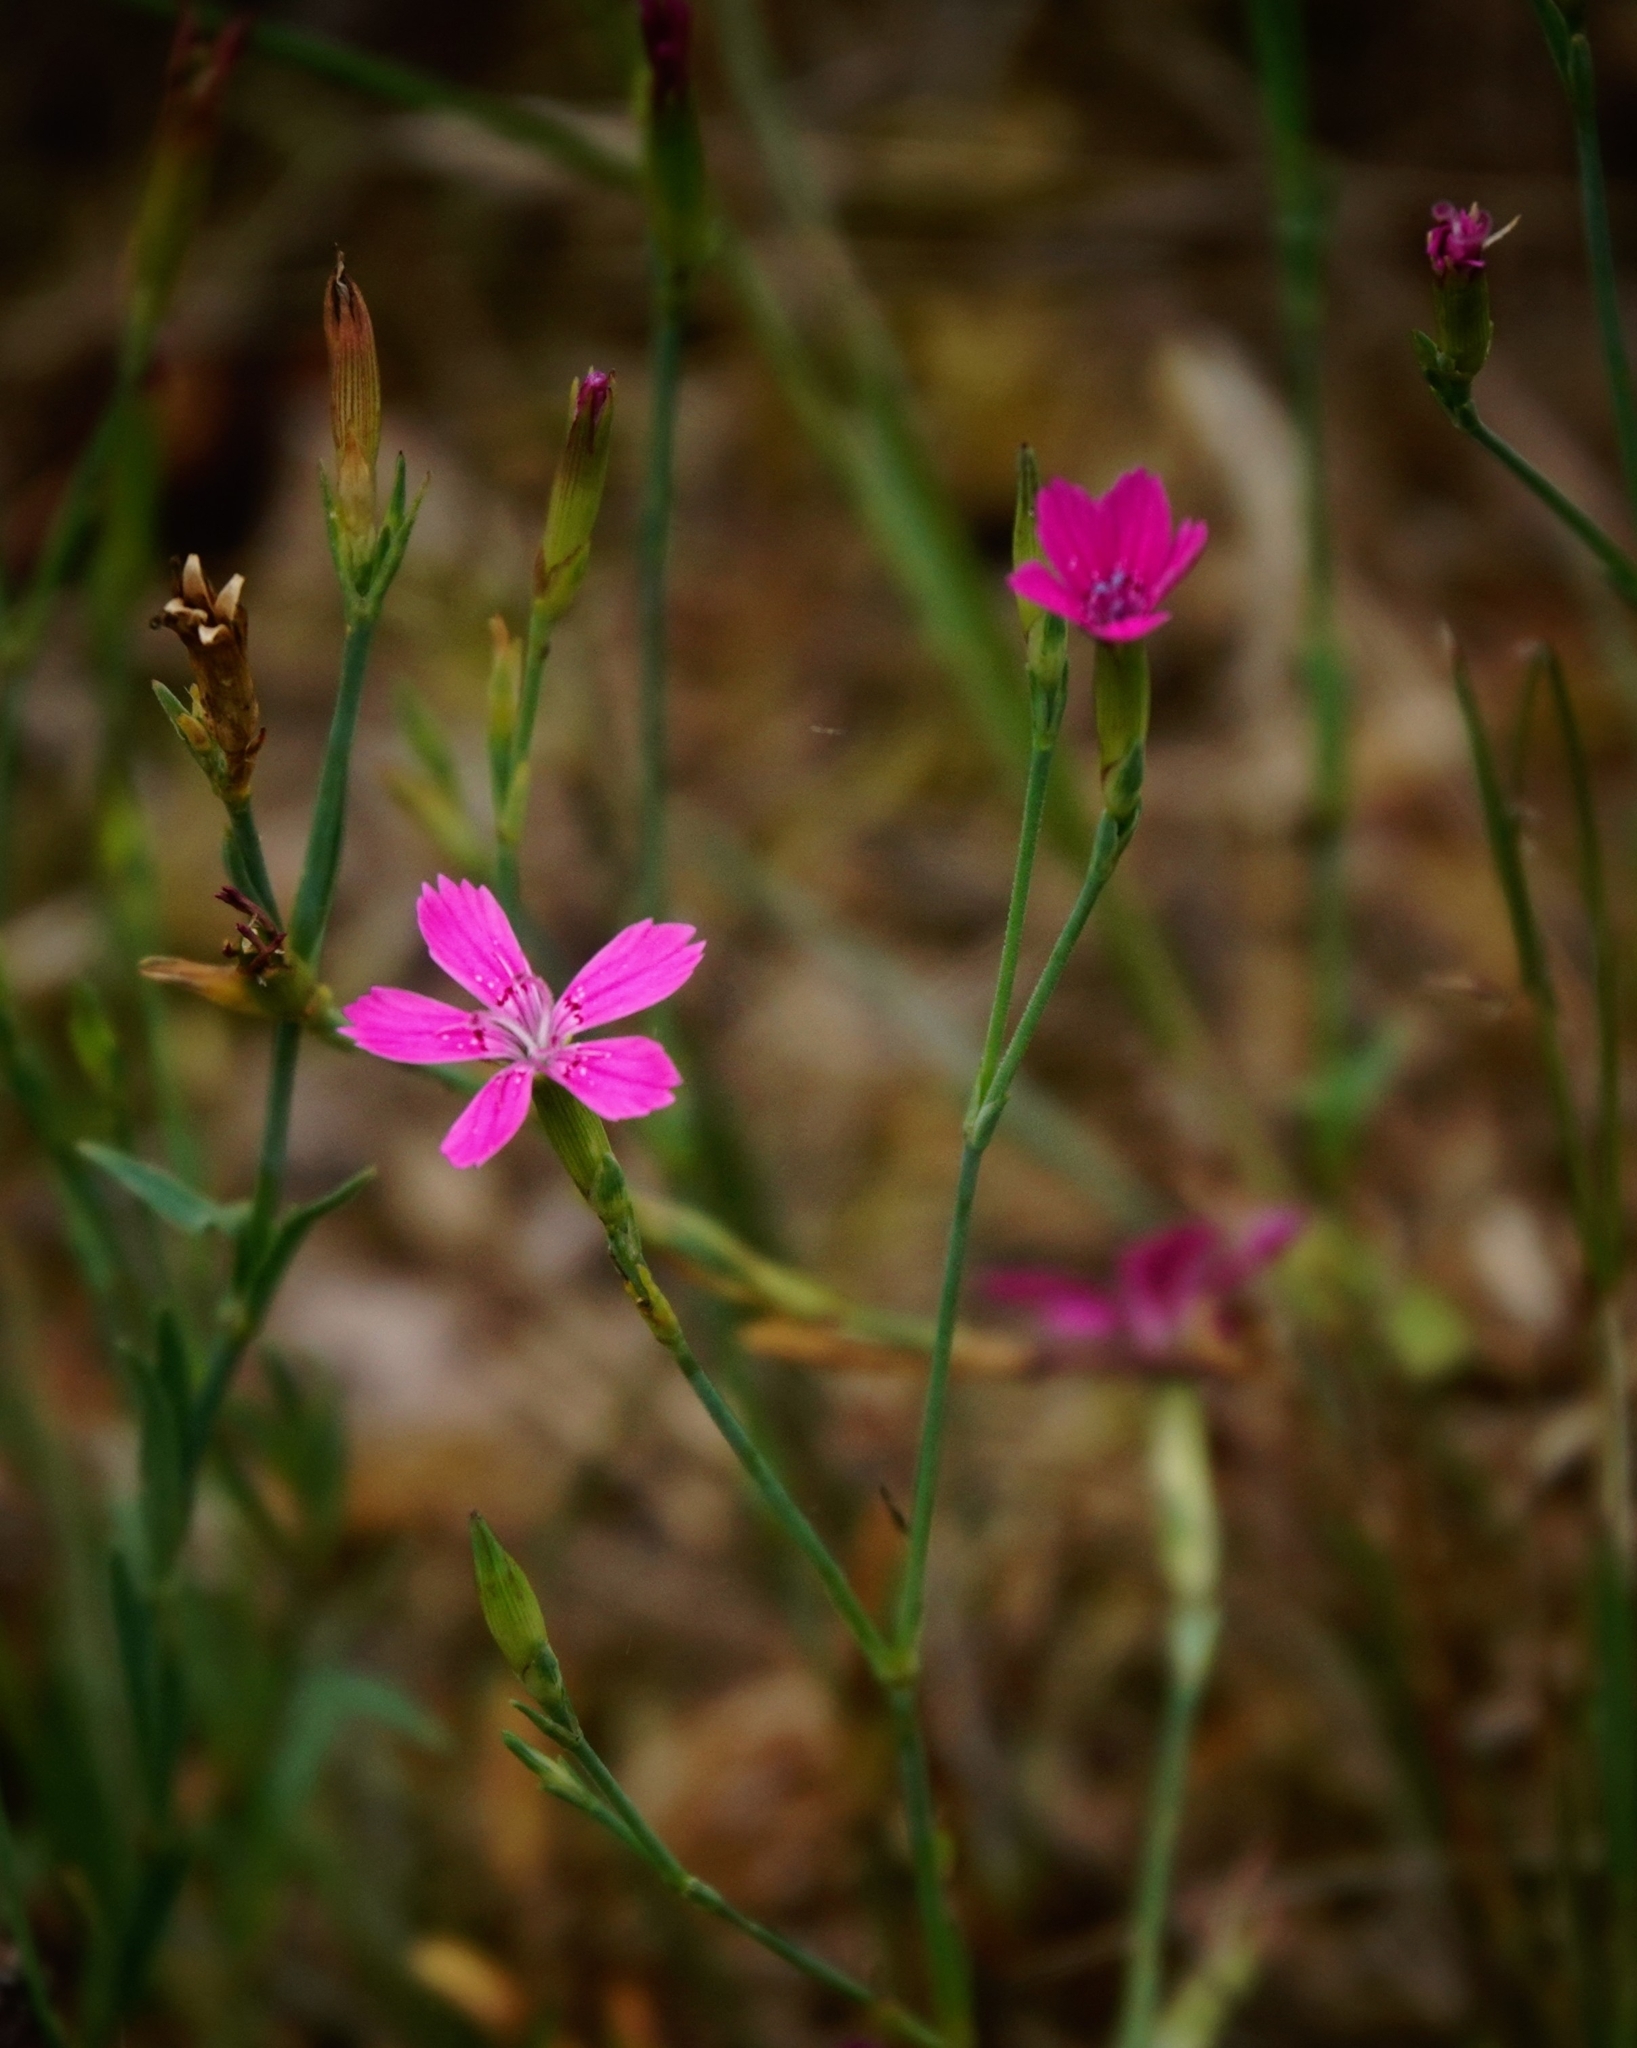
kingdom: Plantae
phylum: Tracheophyta
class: Magnoliopsida
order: Caryophyllales
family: Caryophyllaceae
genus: Dianthus
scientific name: Dianthus deltoides
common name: Maiden pink
